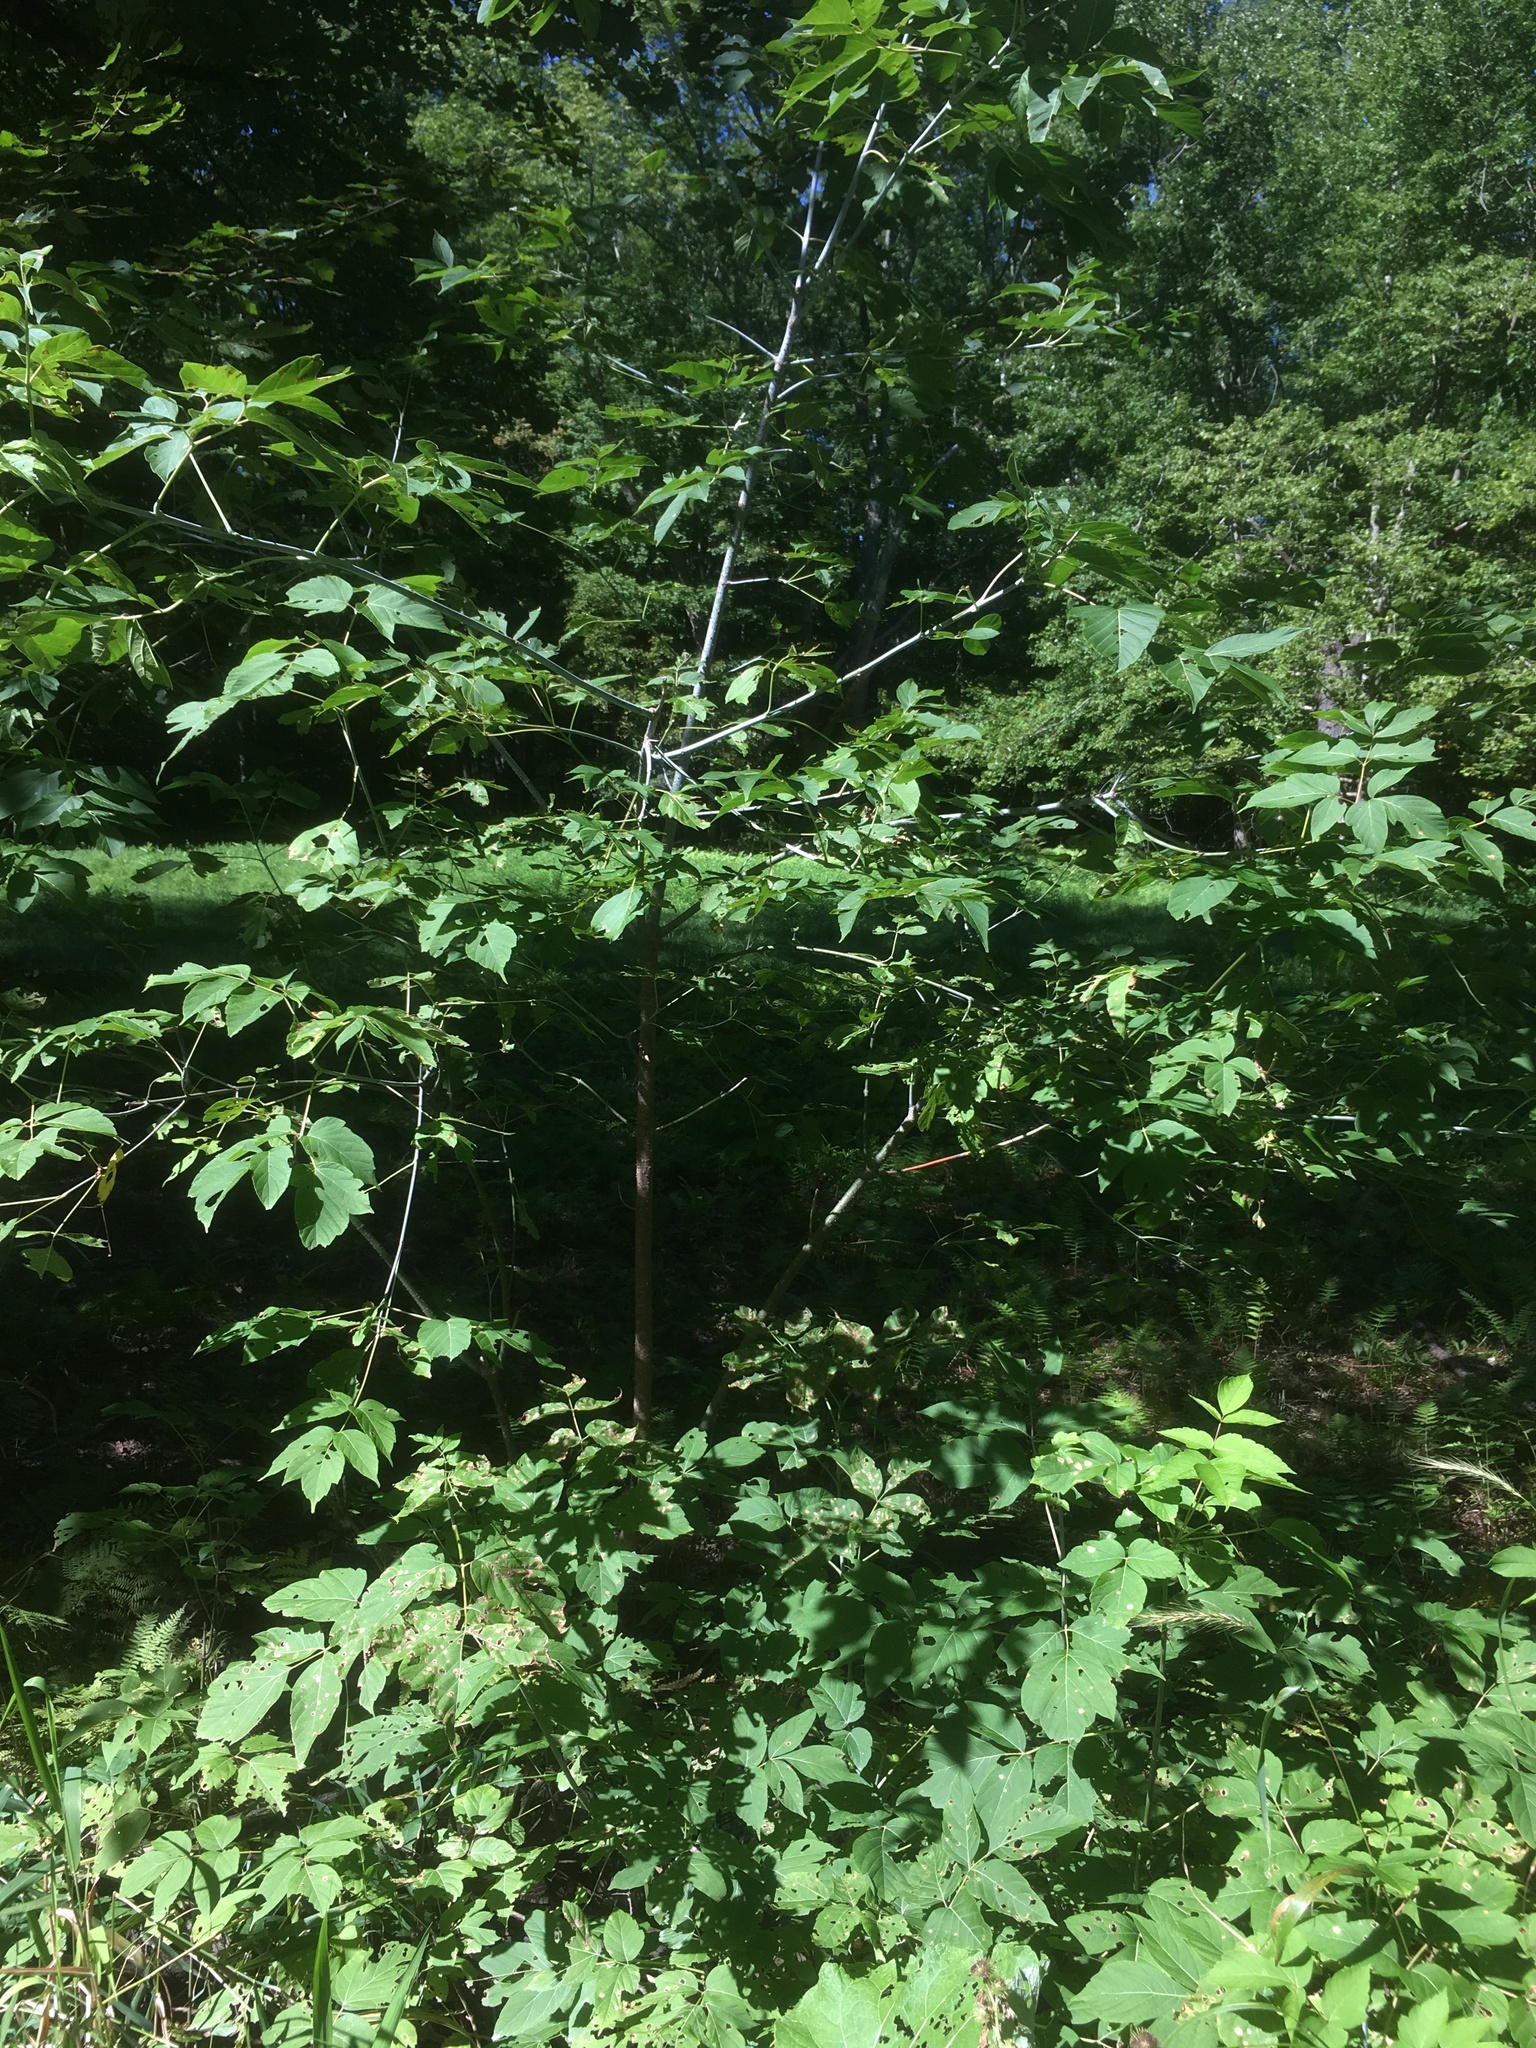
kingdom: Plantae
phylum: Tracheophyta
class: Magnoliopsida
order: Sapindales
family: Sapindaceae
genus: Acer
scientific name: Acer negundo
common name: Ashleaf maple
